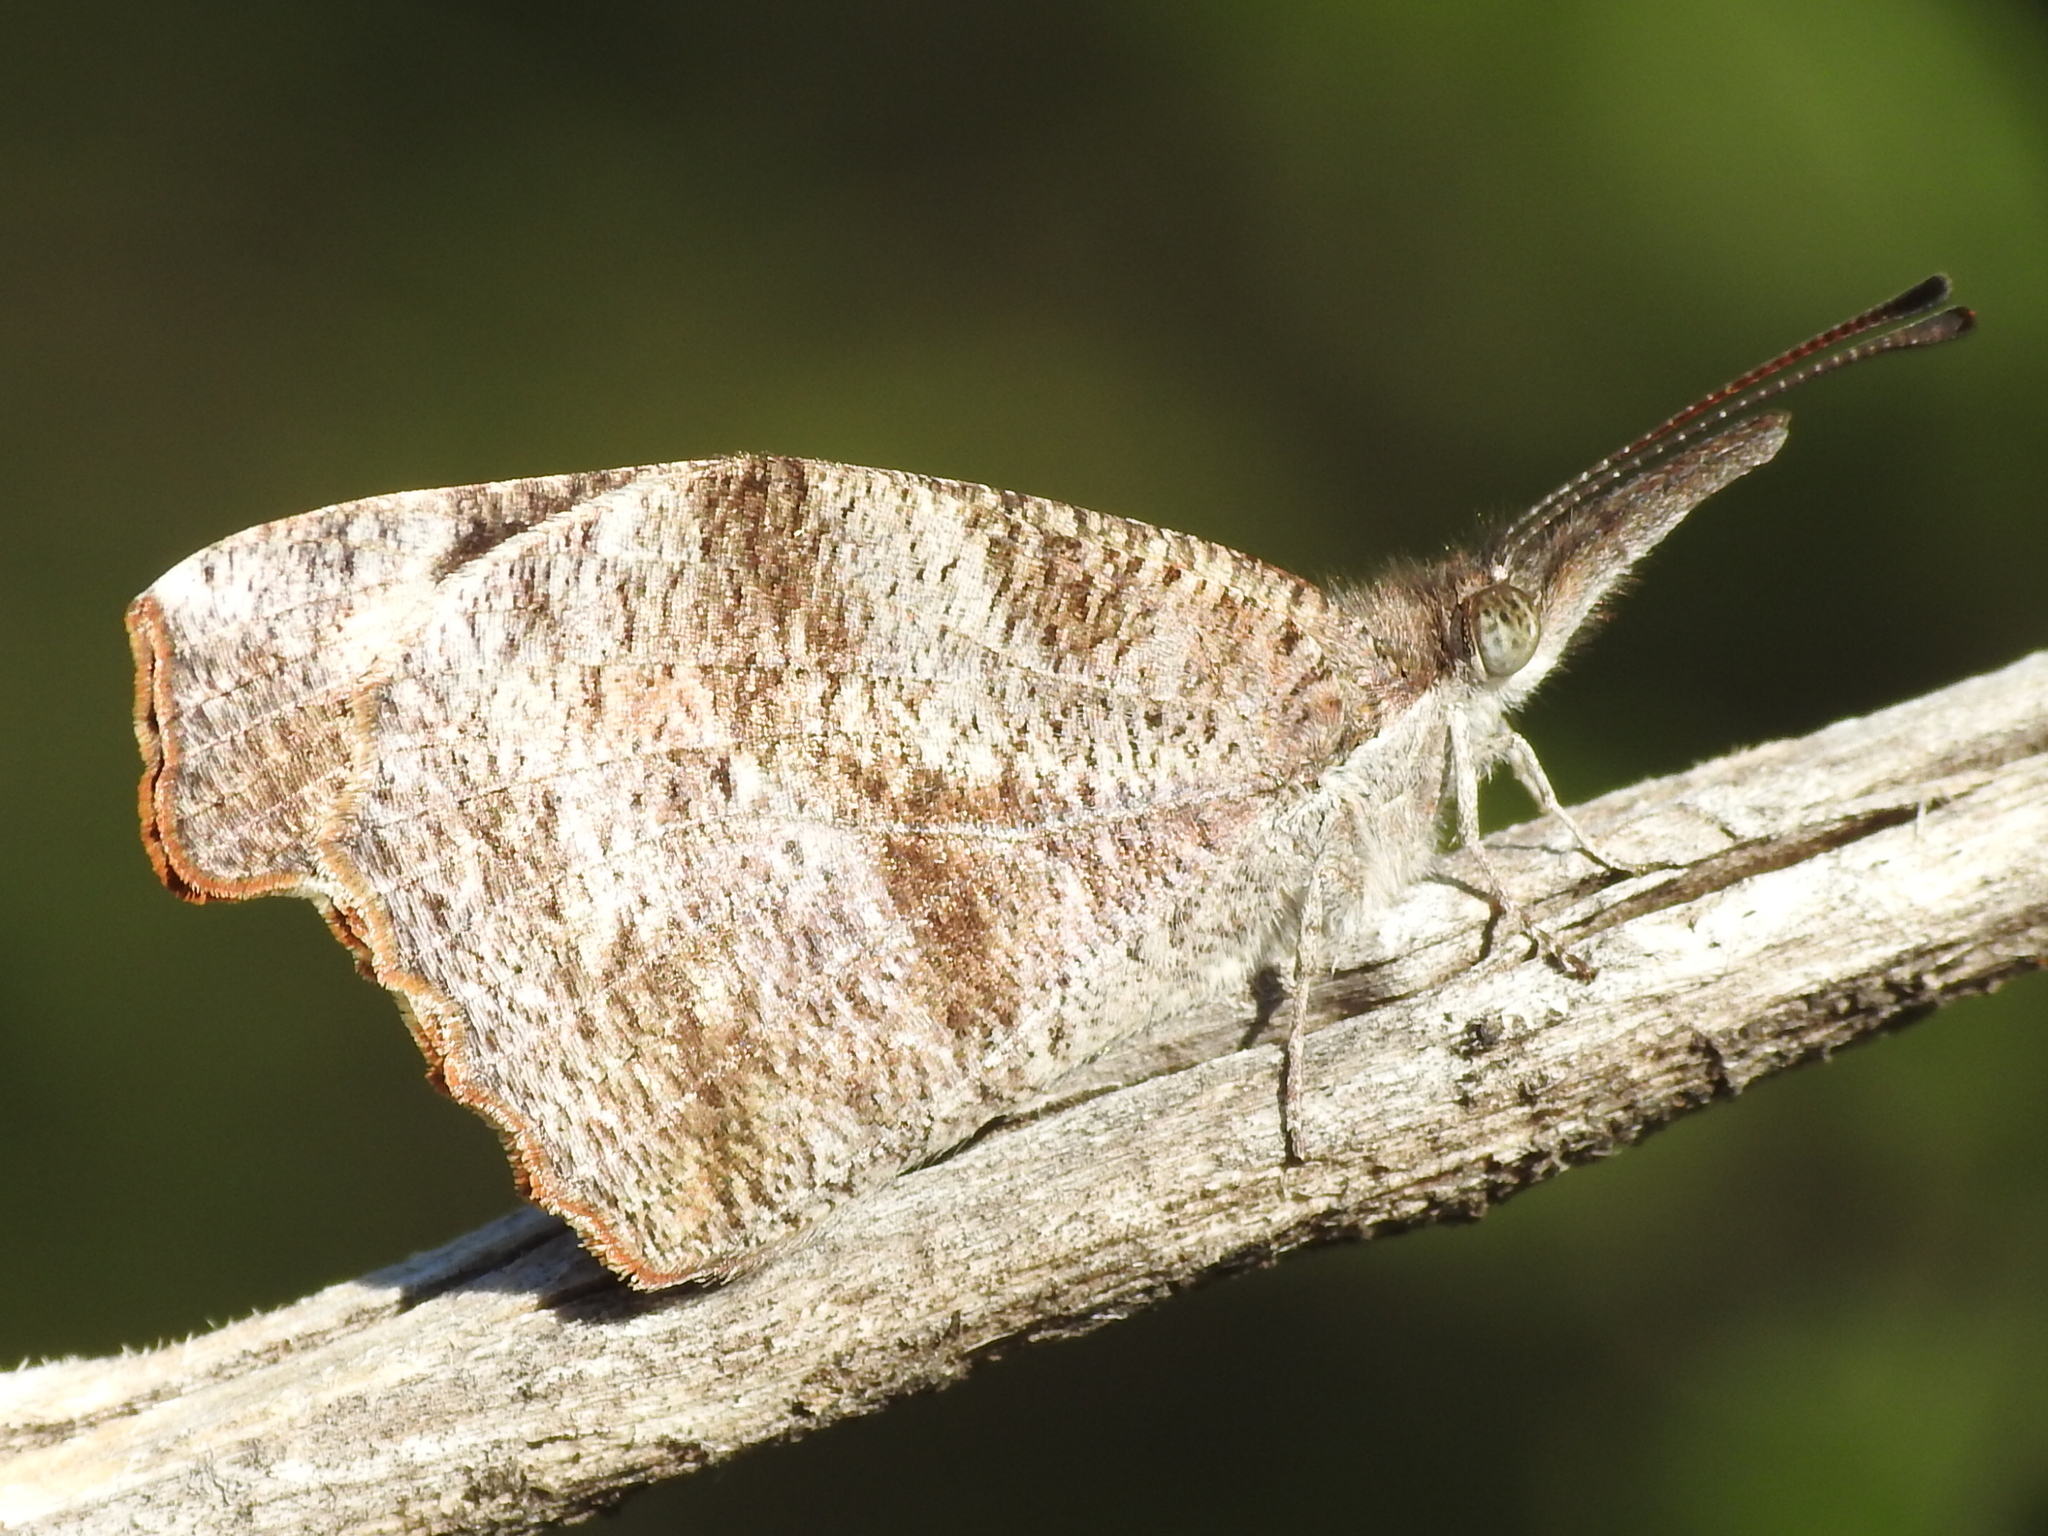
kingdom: Animalia
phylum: Arthropoda
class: Insecta
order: Lepidoptera
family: Nymphalidae
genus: Libytheana
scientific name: Libytheana carinenta
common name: American snout
